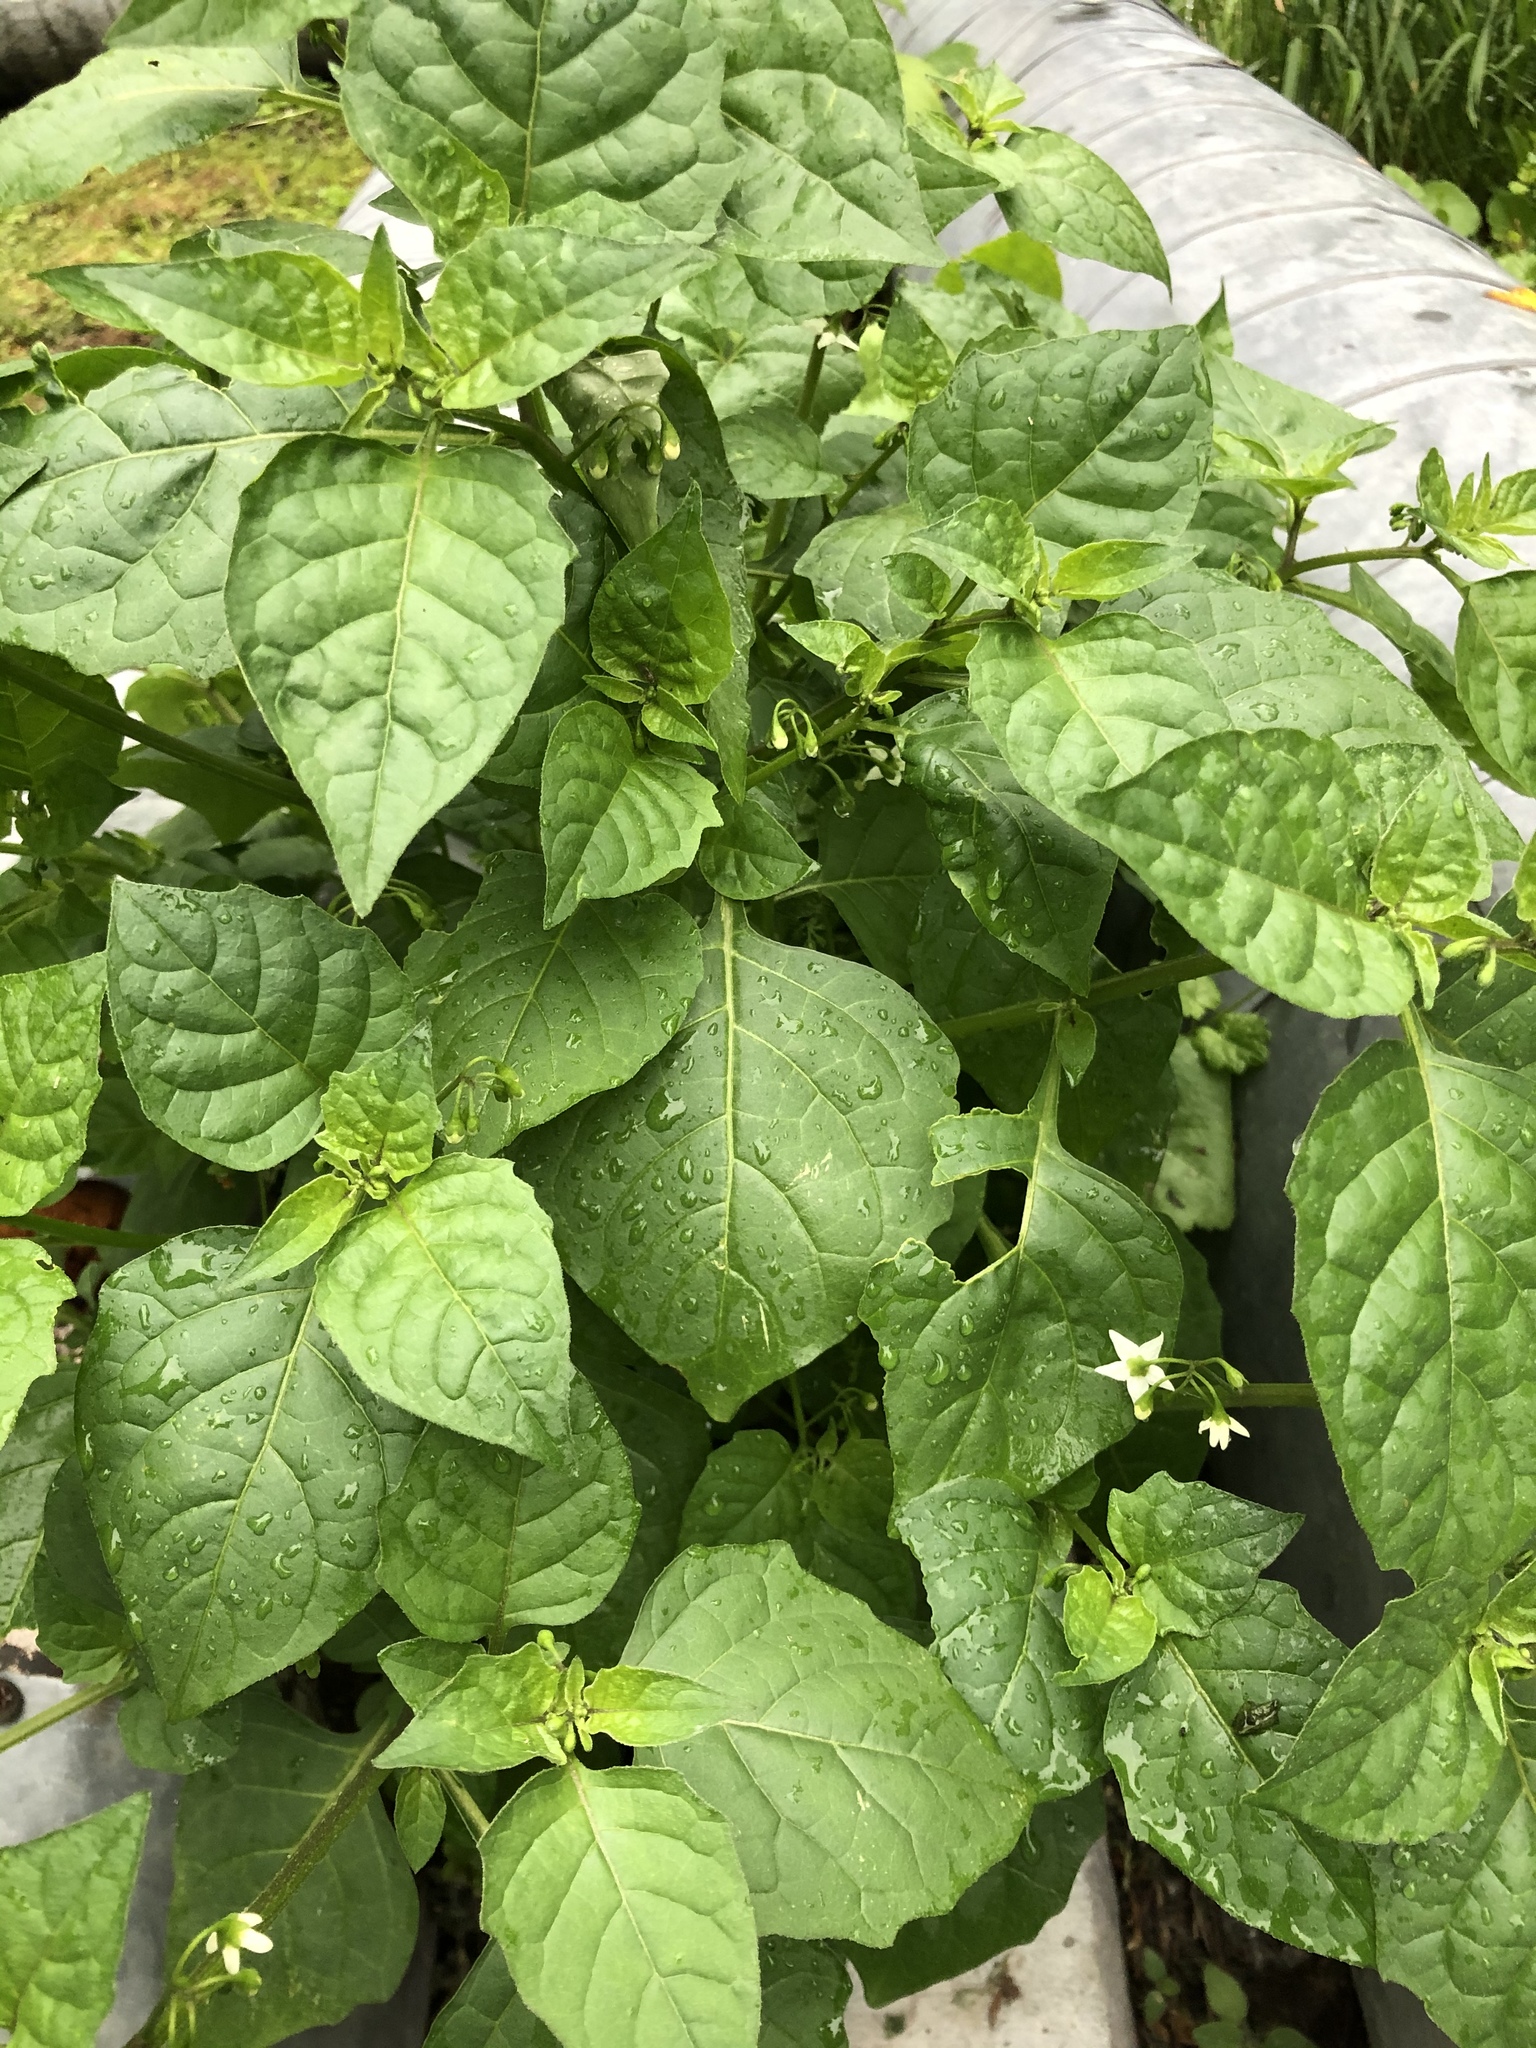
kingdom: Plantae
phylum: Tracheophyta
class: Magnoliopsida
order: Solanales
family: Solanaceae
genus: Solanum
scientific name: Solanum nigrum
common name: Black nightshade
